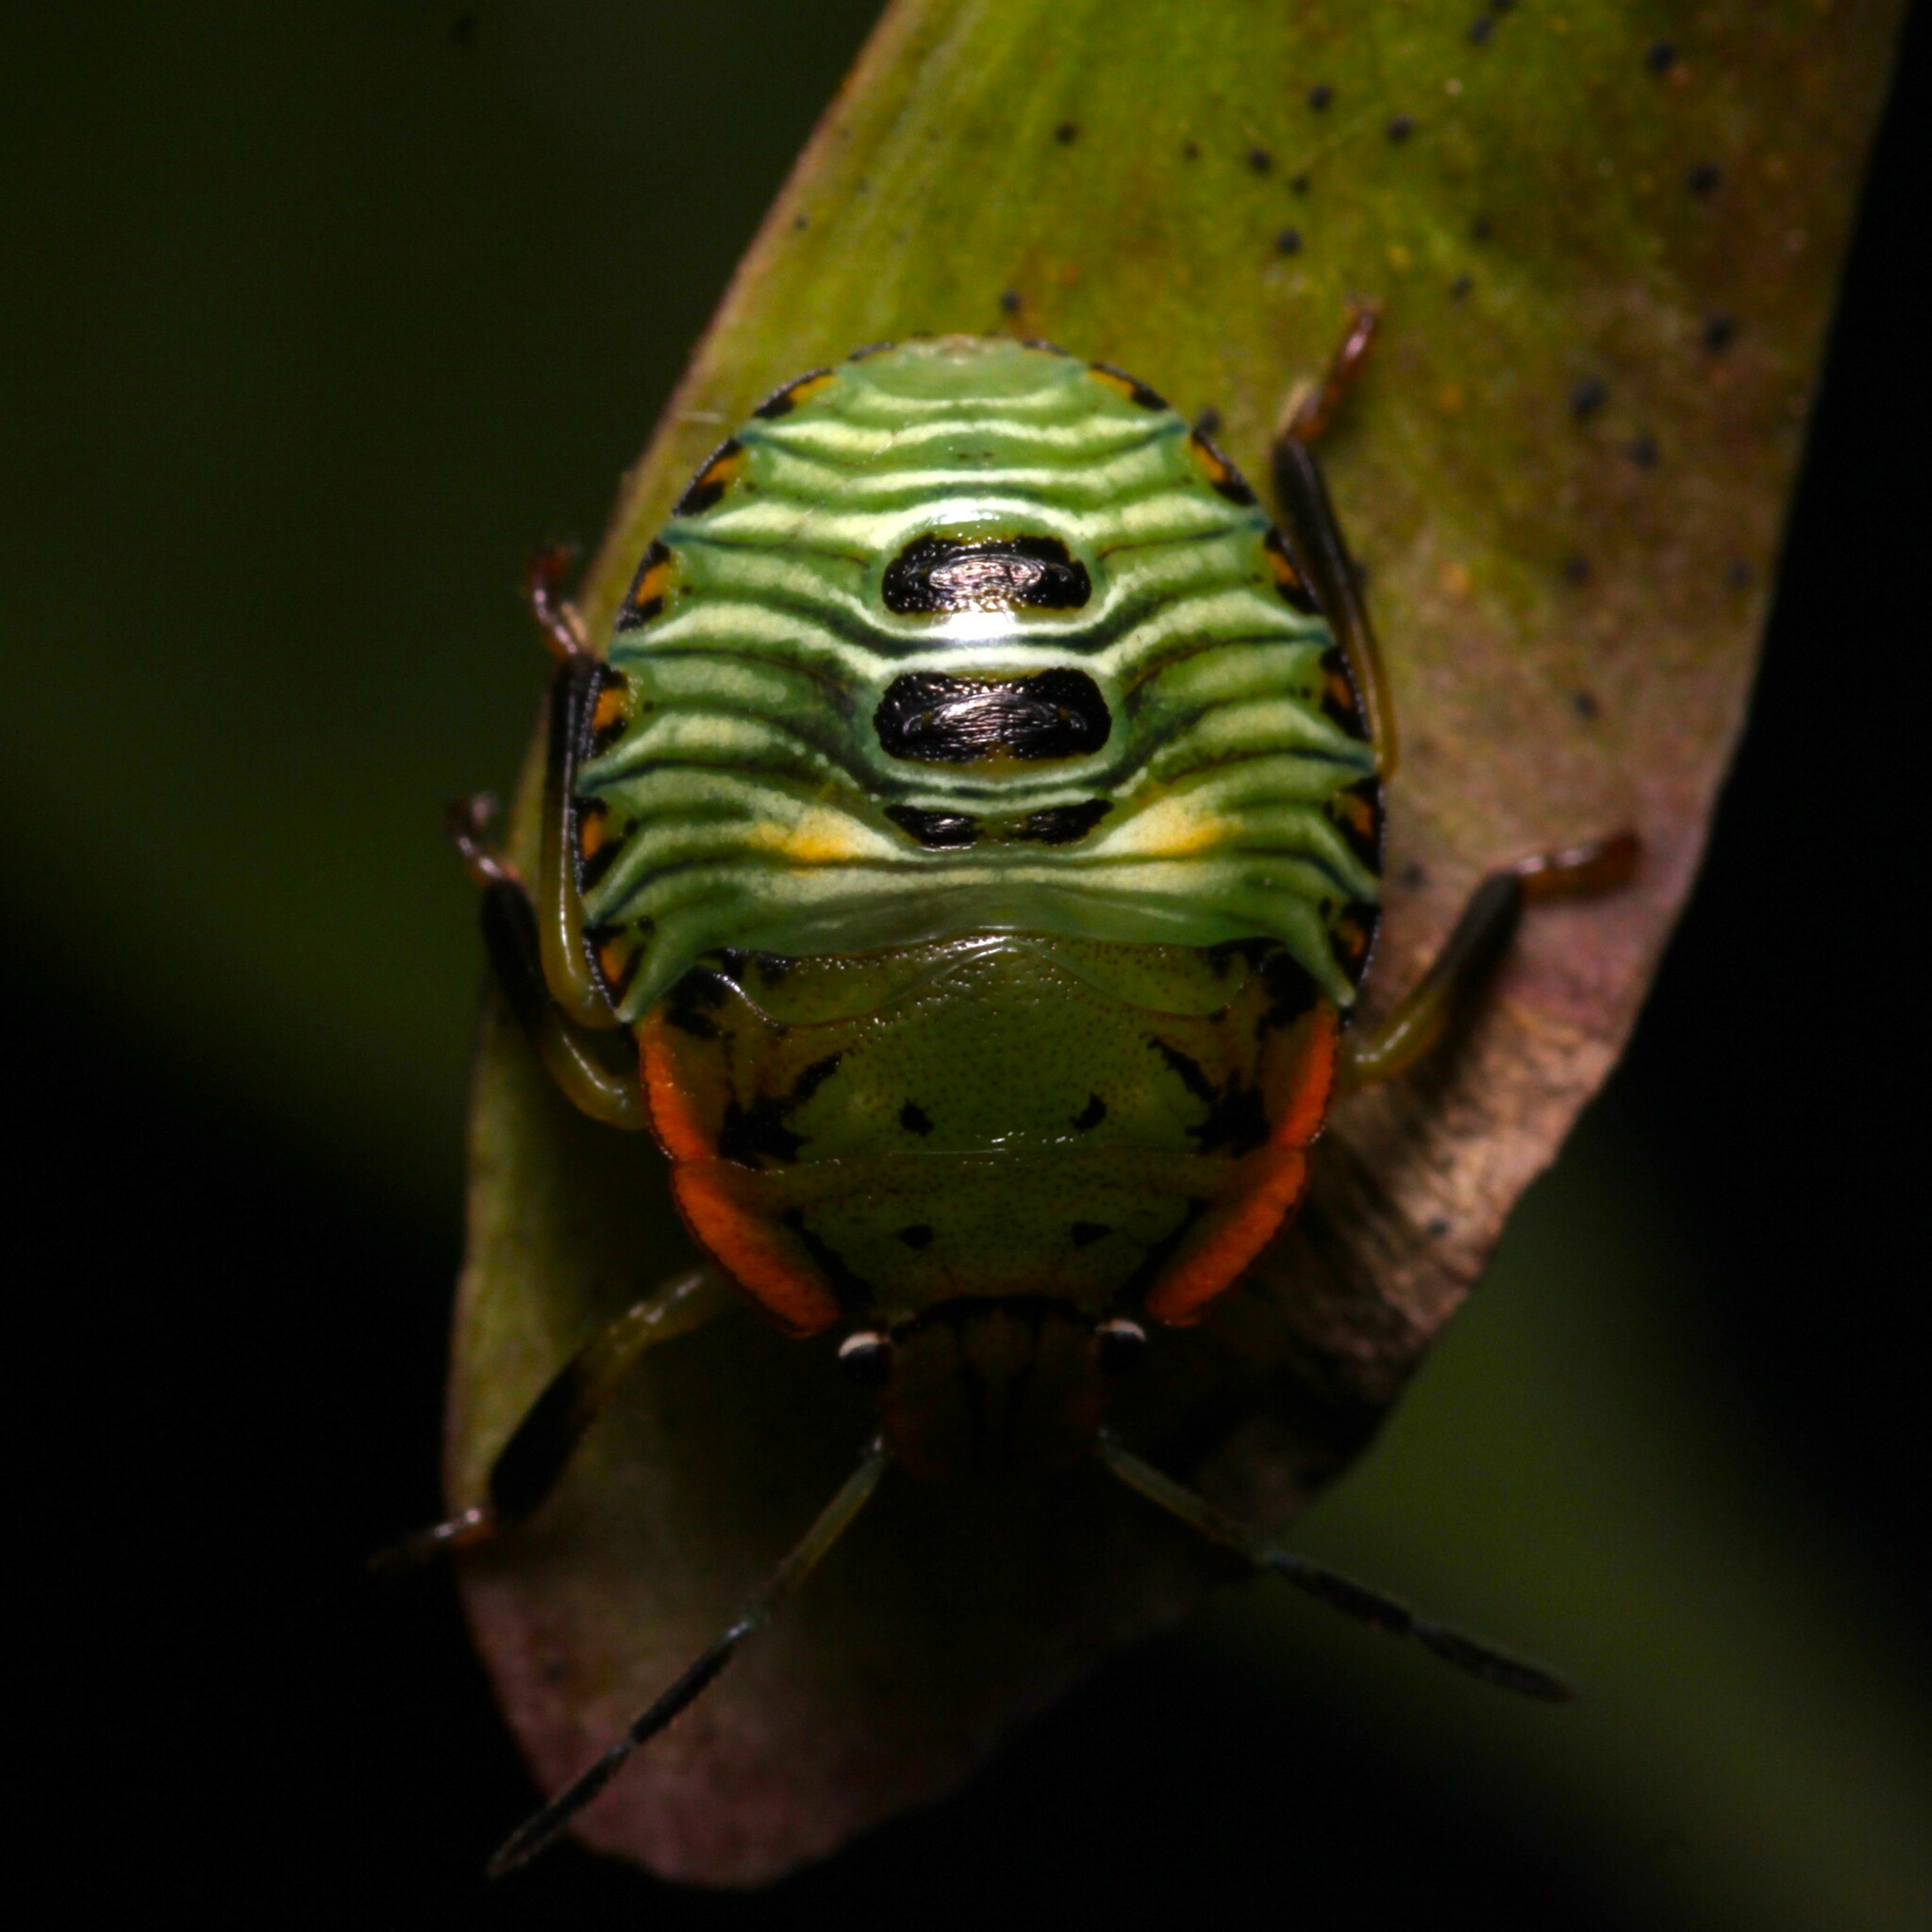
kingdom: Animalia
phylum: Arthropoda
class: Insecta
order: Hemiptera
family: Pentatomidae
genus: Chinavia
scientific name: Chinavia hilaris
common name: Green stink bug
